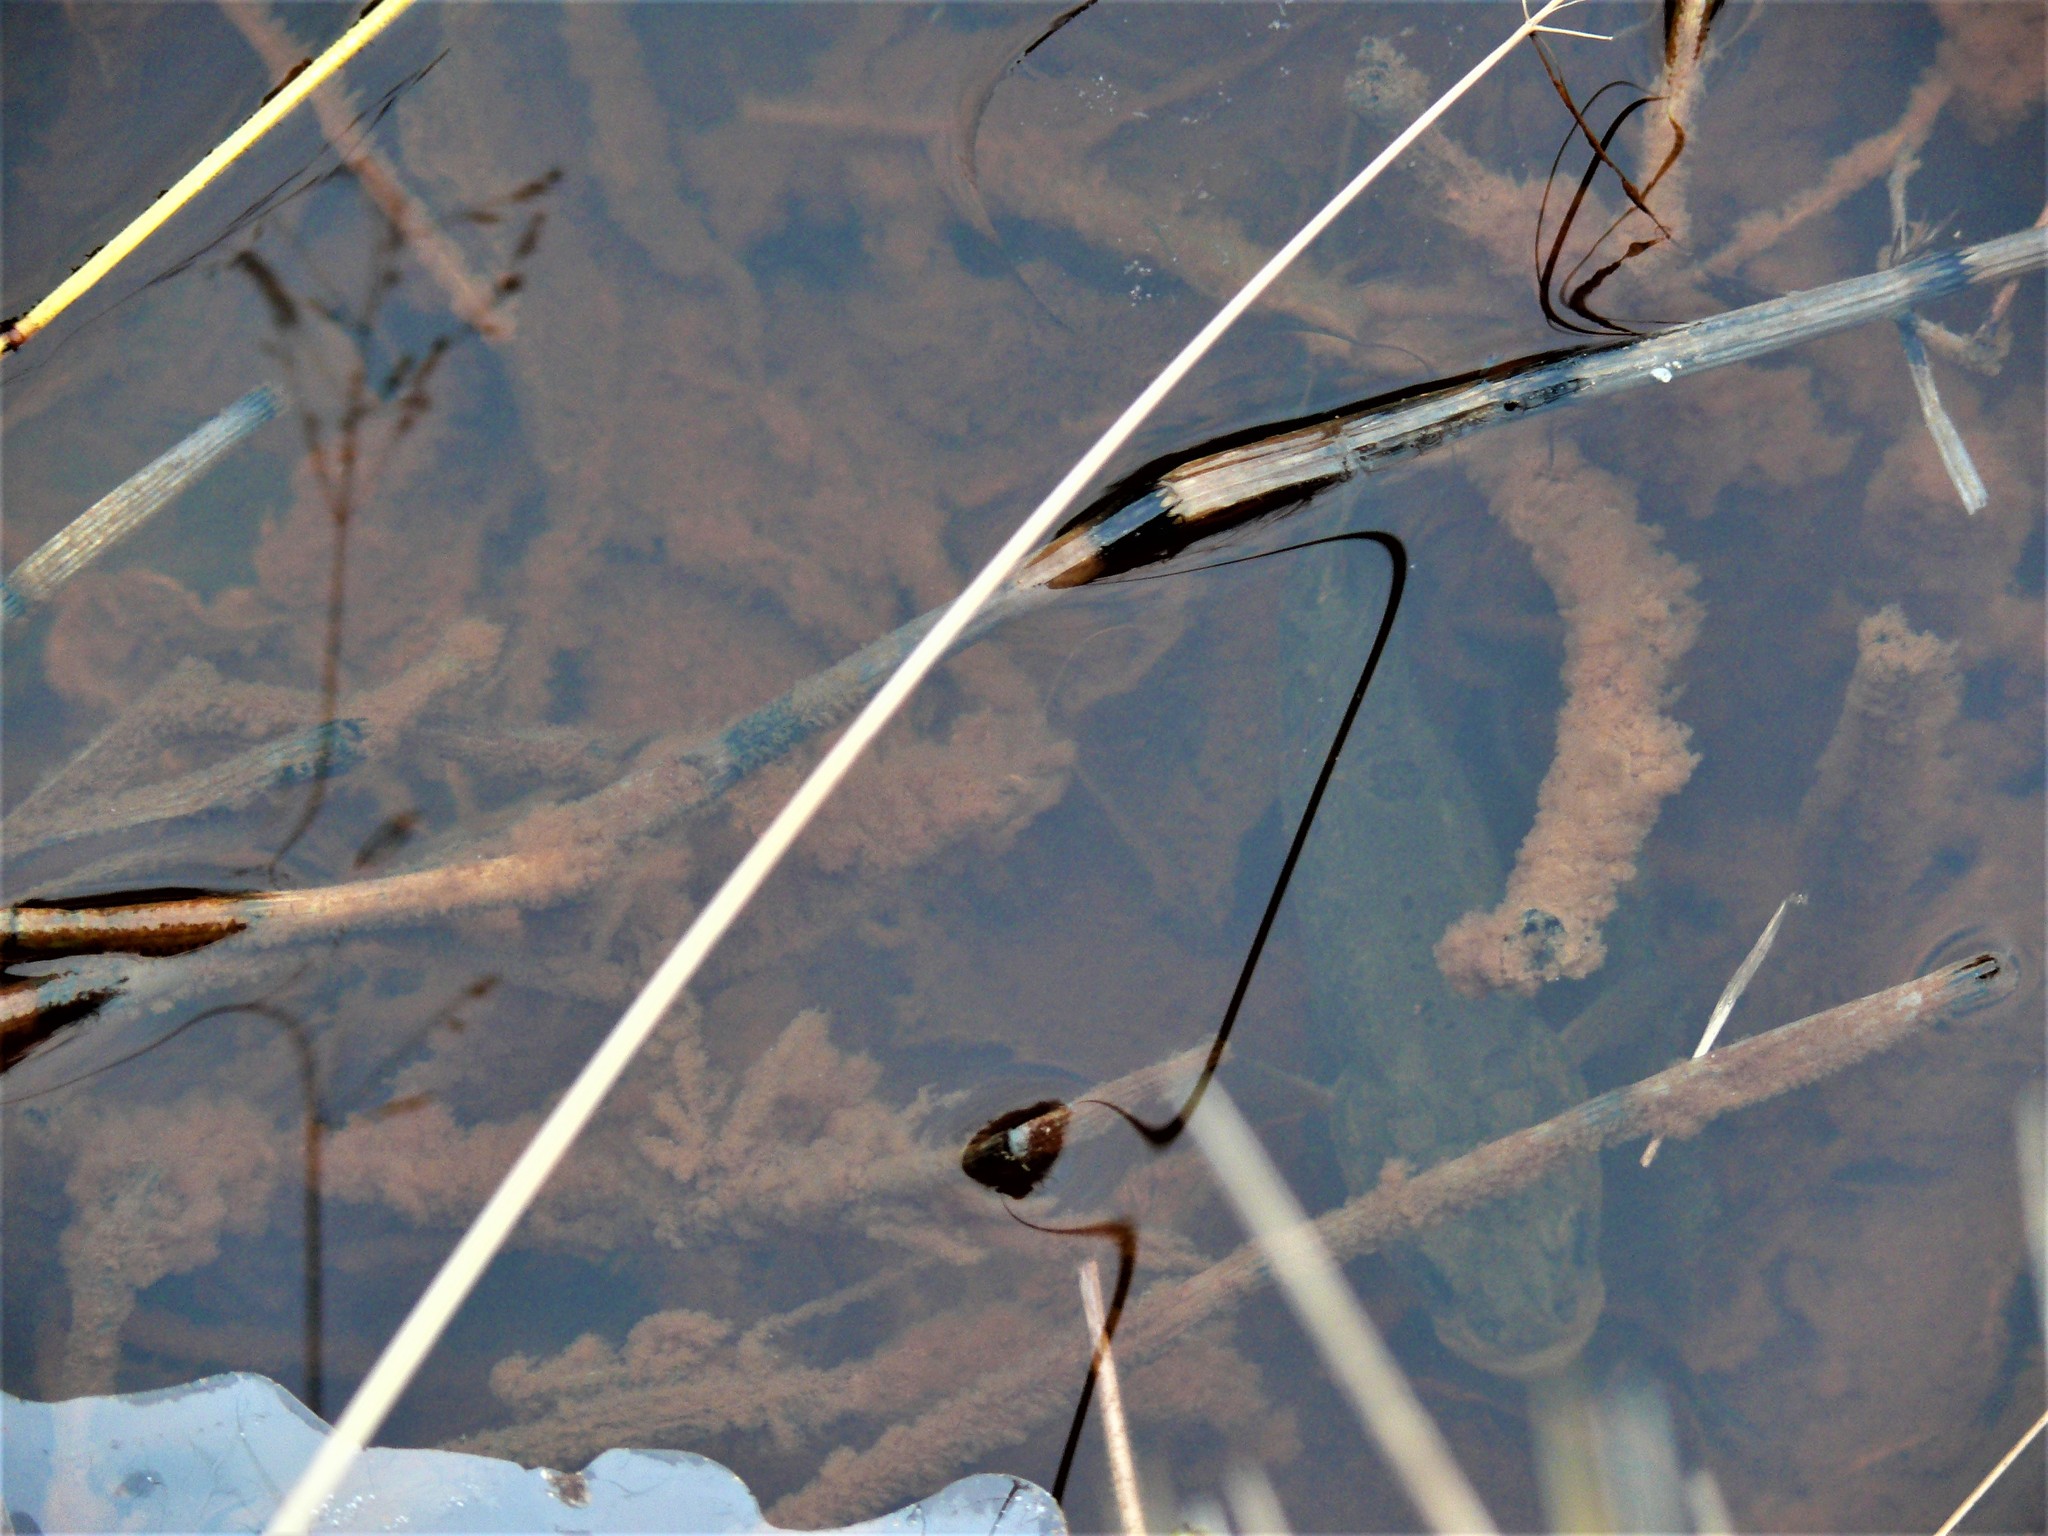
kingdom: Animalia
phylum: Chordata
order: Esociformes
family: Umbridae
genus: Dallia
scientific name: Dallia pectoralis
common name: Alaska blackfish
